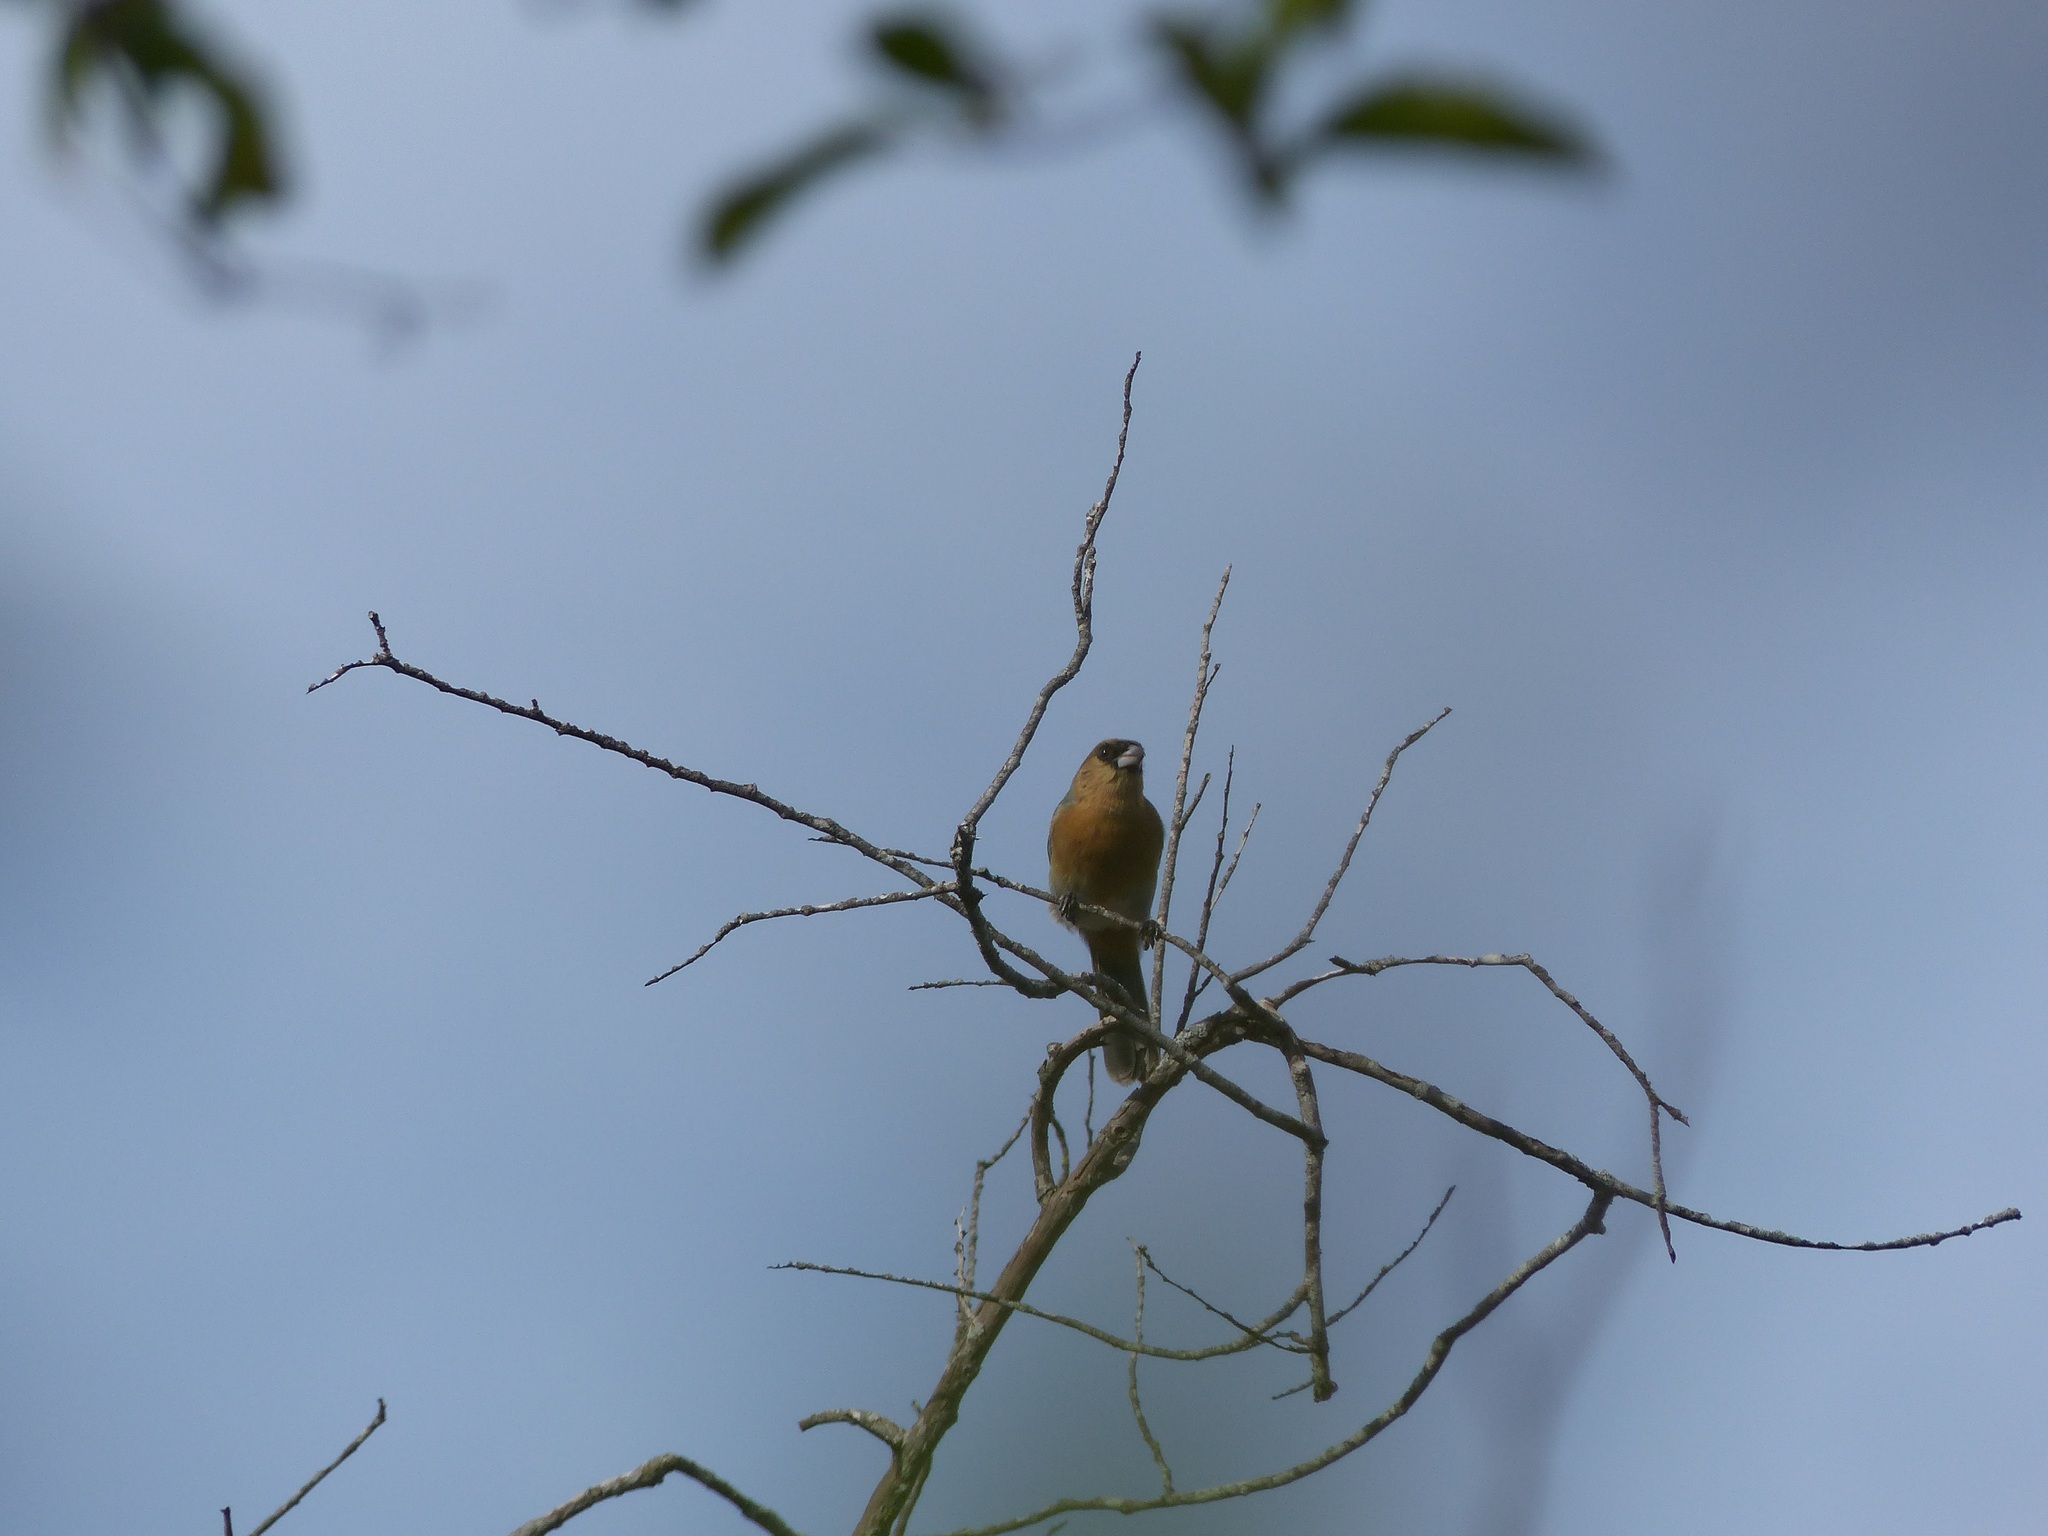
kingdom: Animalia
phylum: Chordata
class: Aves
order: Passeriformes
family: Thraupidae
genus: Schistochlamys
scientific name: Schistochlamys ruficapillus
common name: Cinnamon tanager
